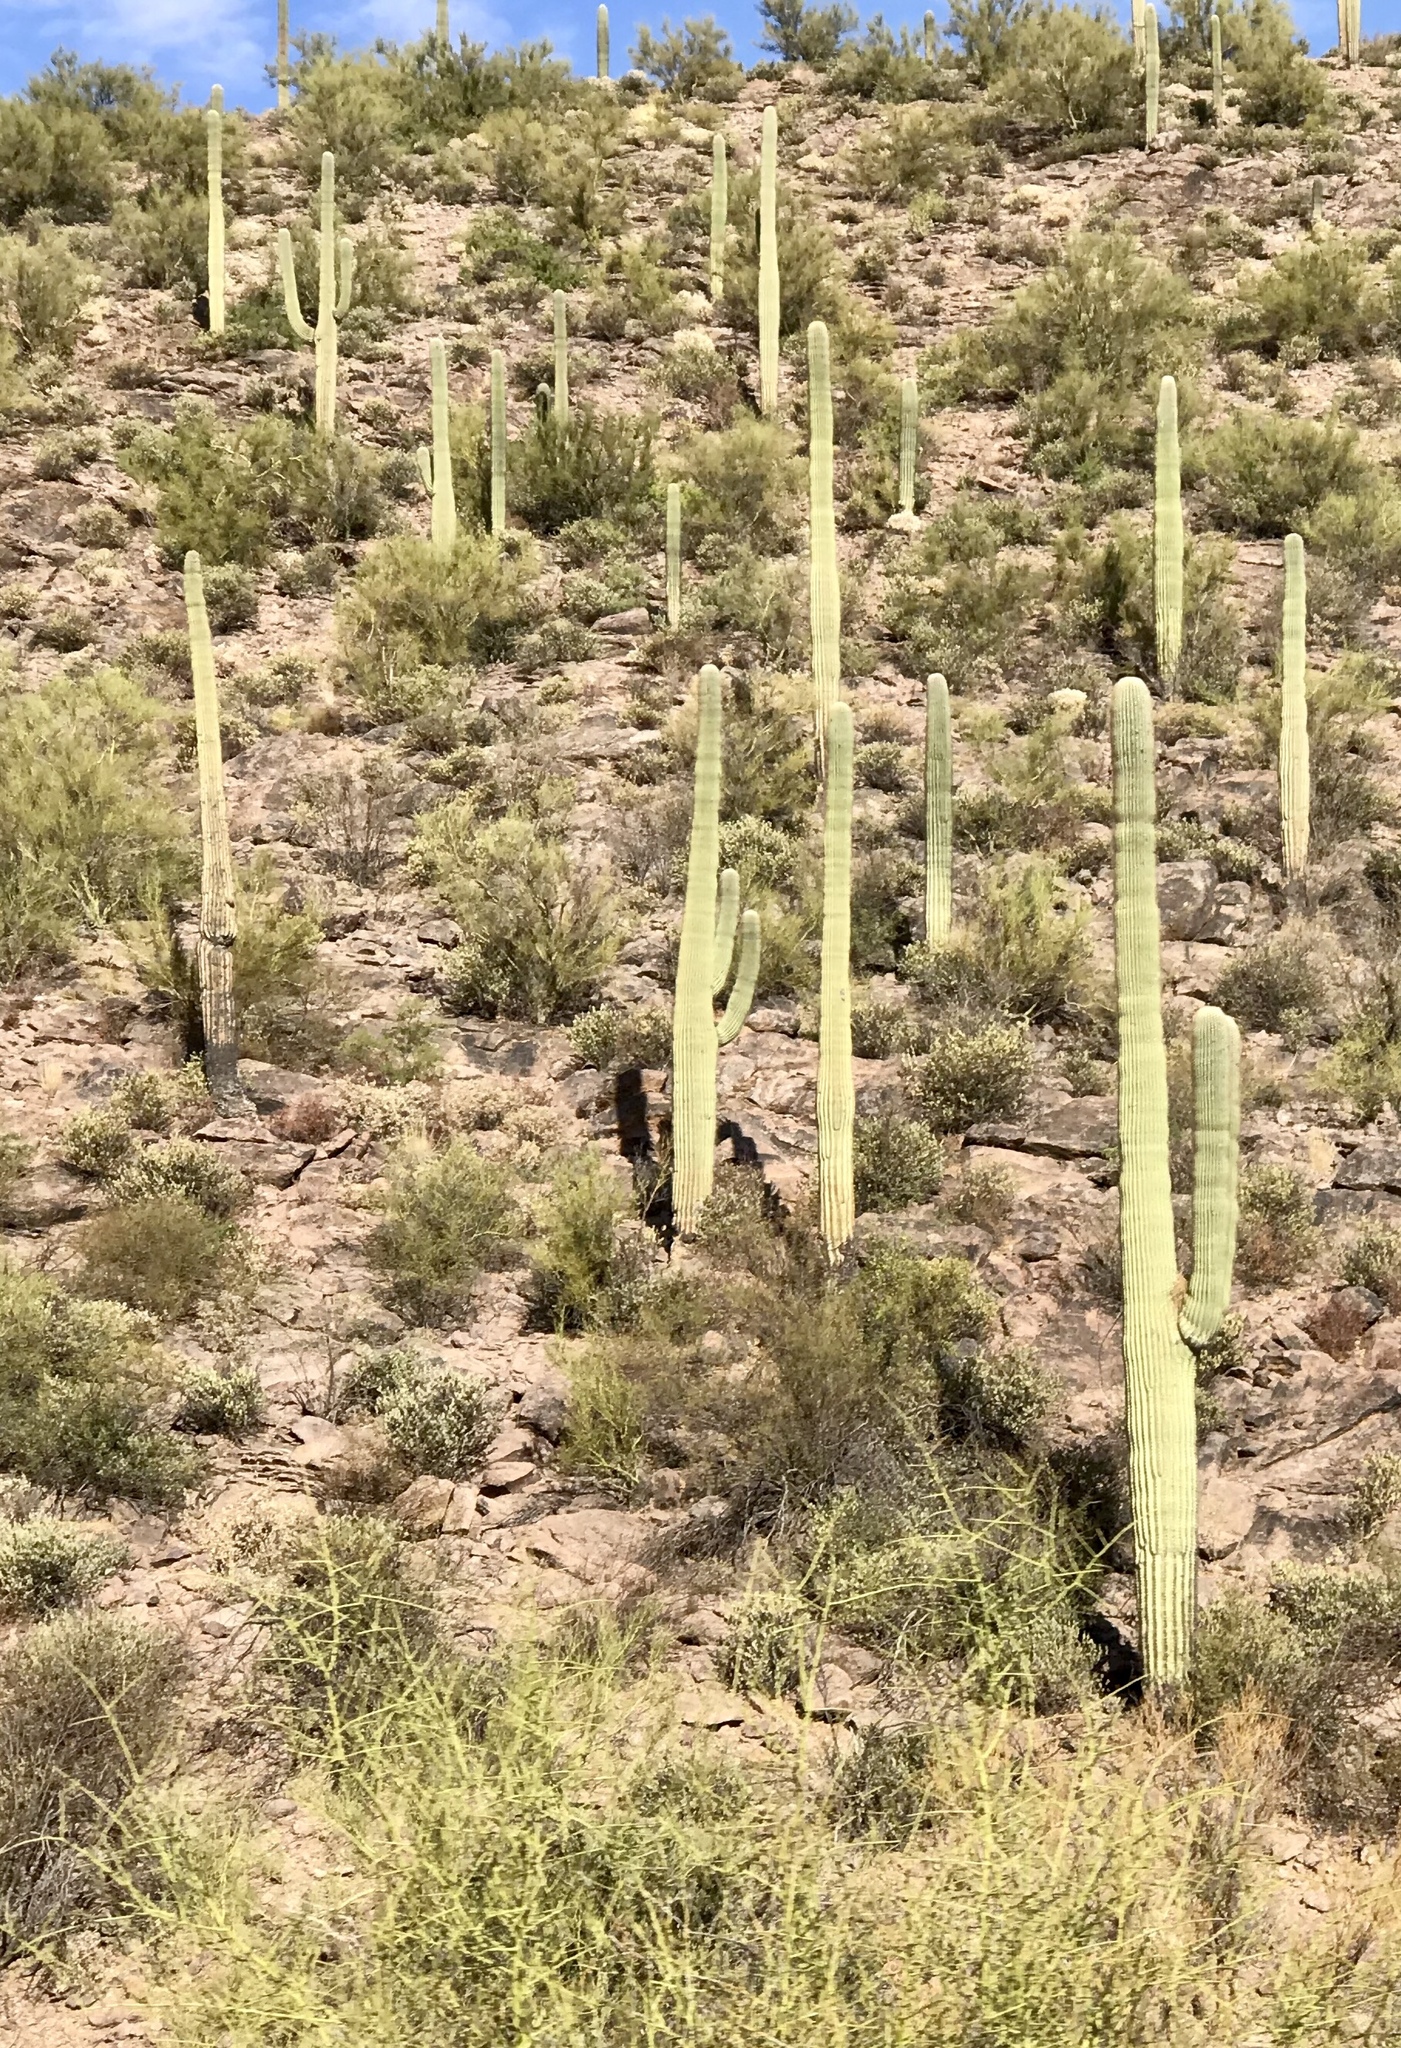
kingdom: Plantae
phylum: Tracheophyta
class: Magnoliopsida
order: Caryophyllales
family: Cactaceae
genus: Carnegiea
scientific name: Carnegiea gigantea
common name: Saguaro
